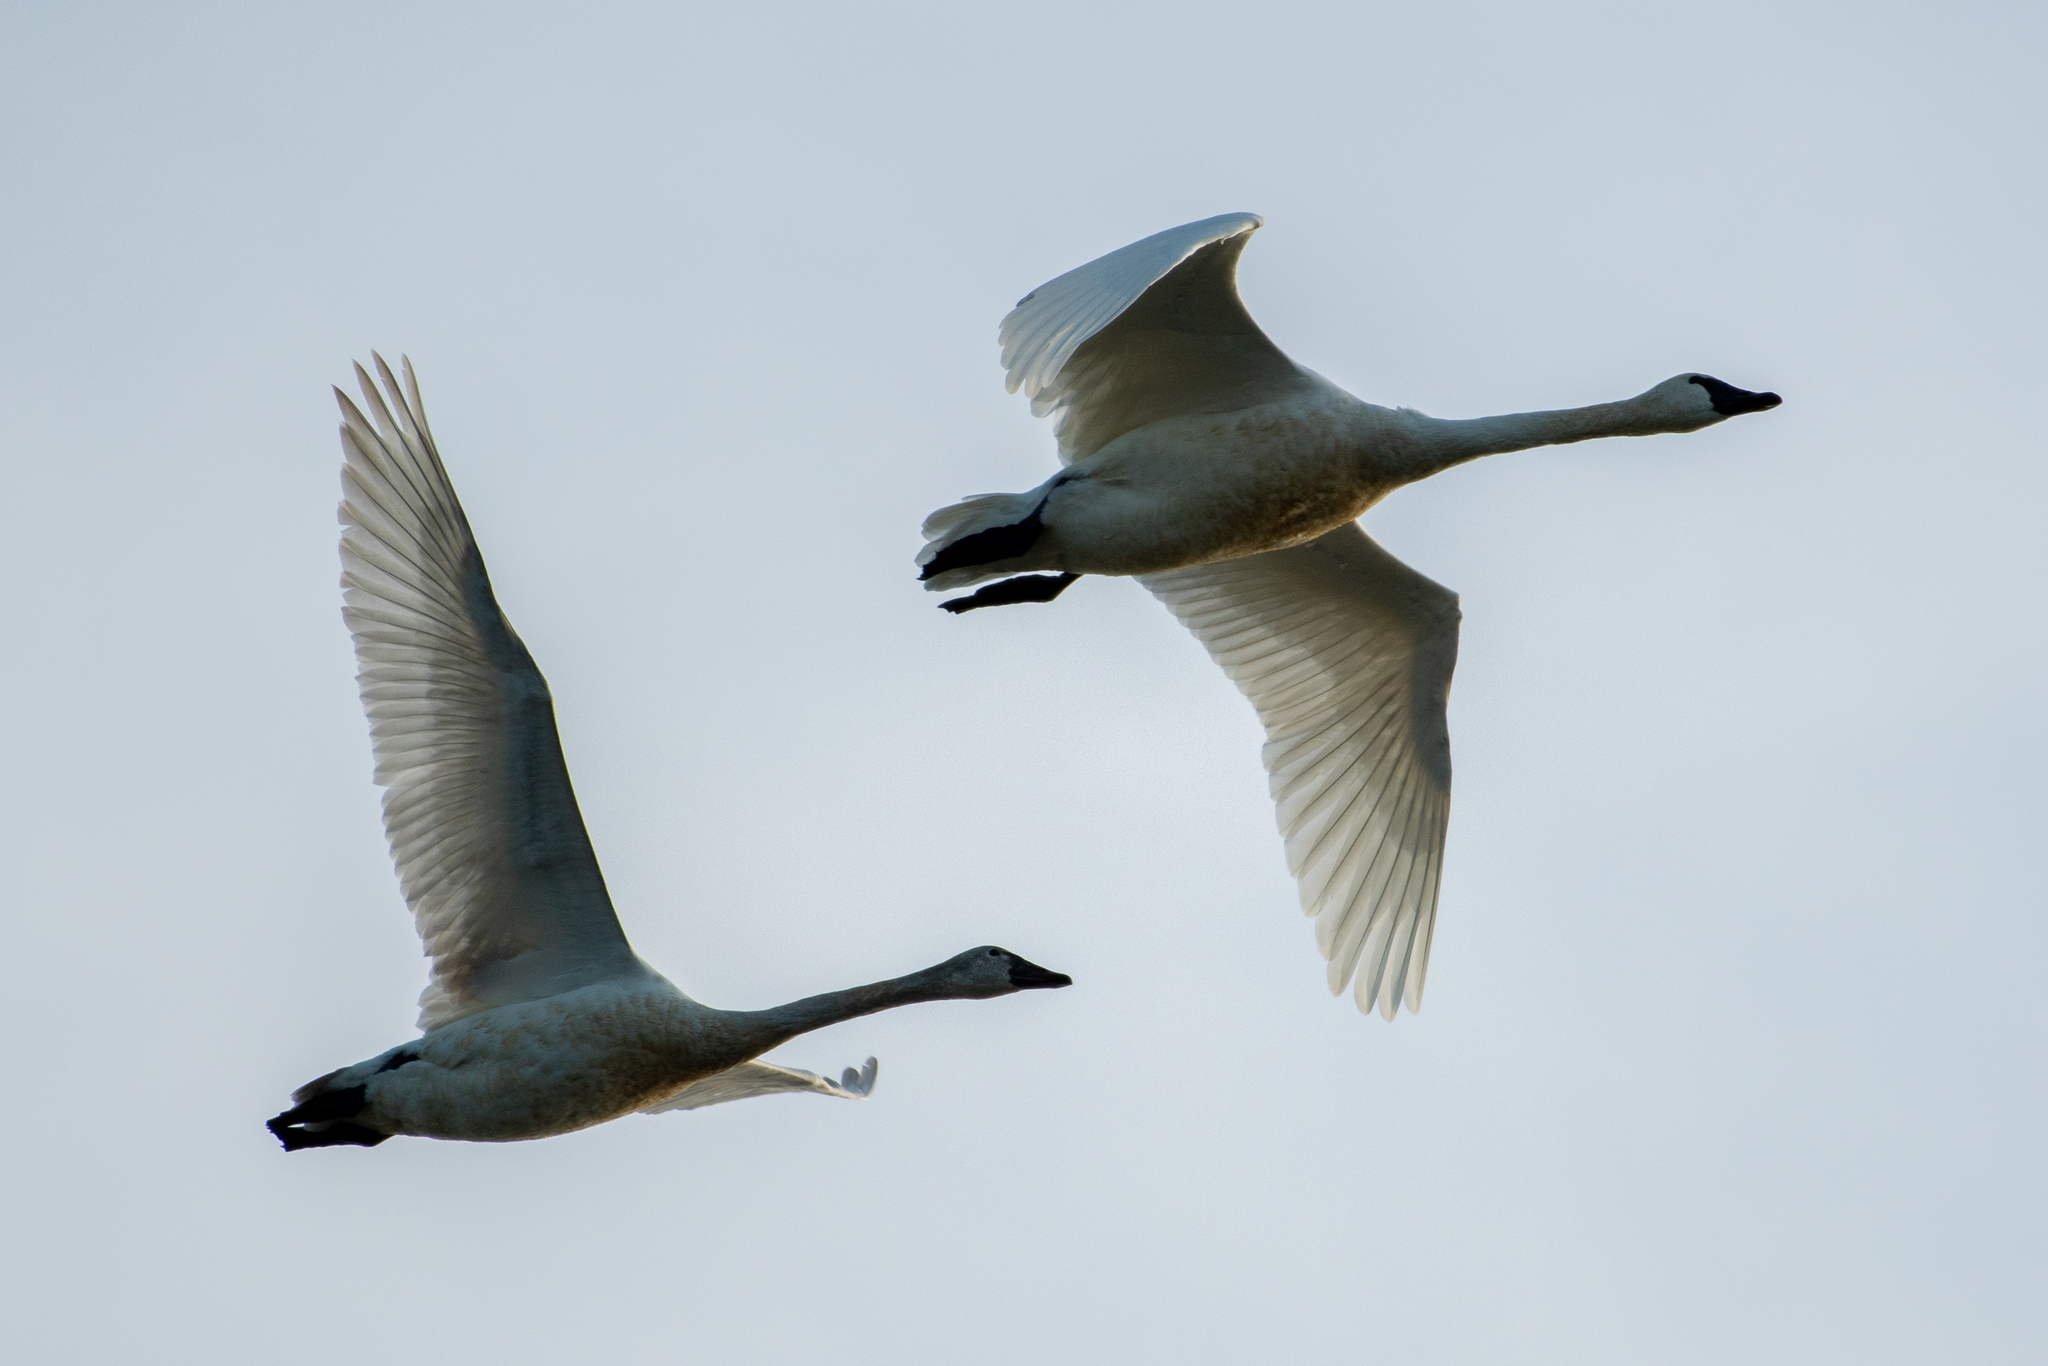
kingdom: Animalia
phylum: Chordata
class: Aves
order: Anseriformes
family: Anatidae
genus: Cygnus
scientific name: Cygnus columbianus
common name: Tundra swan
